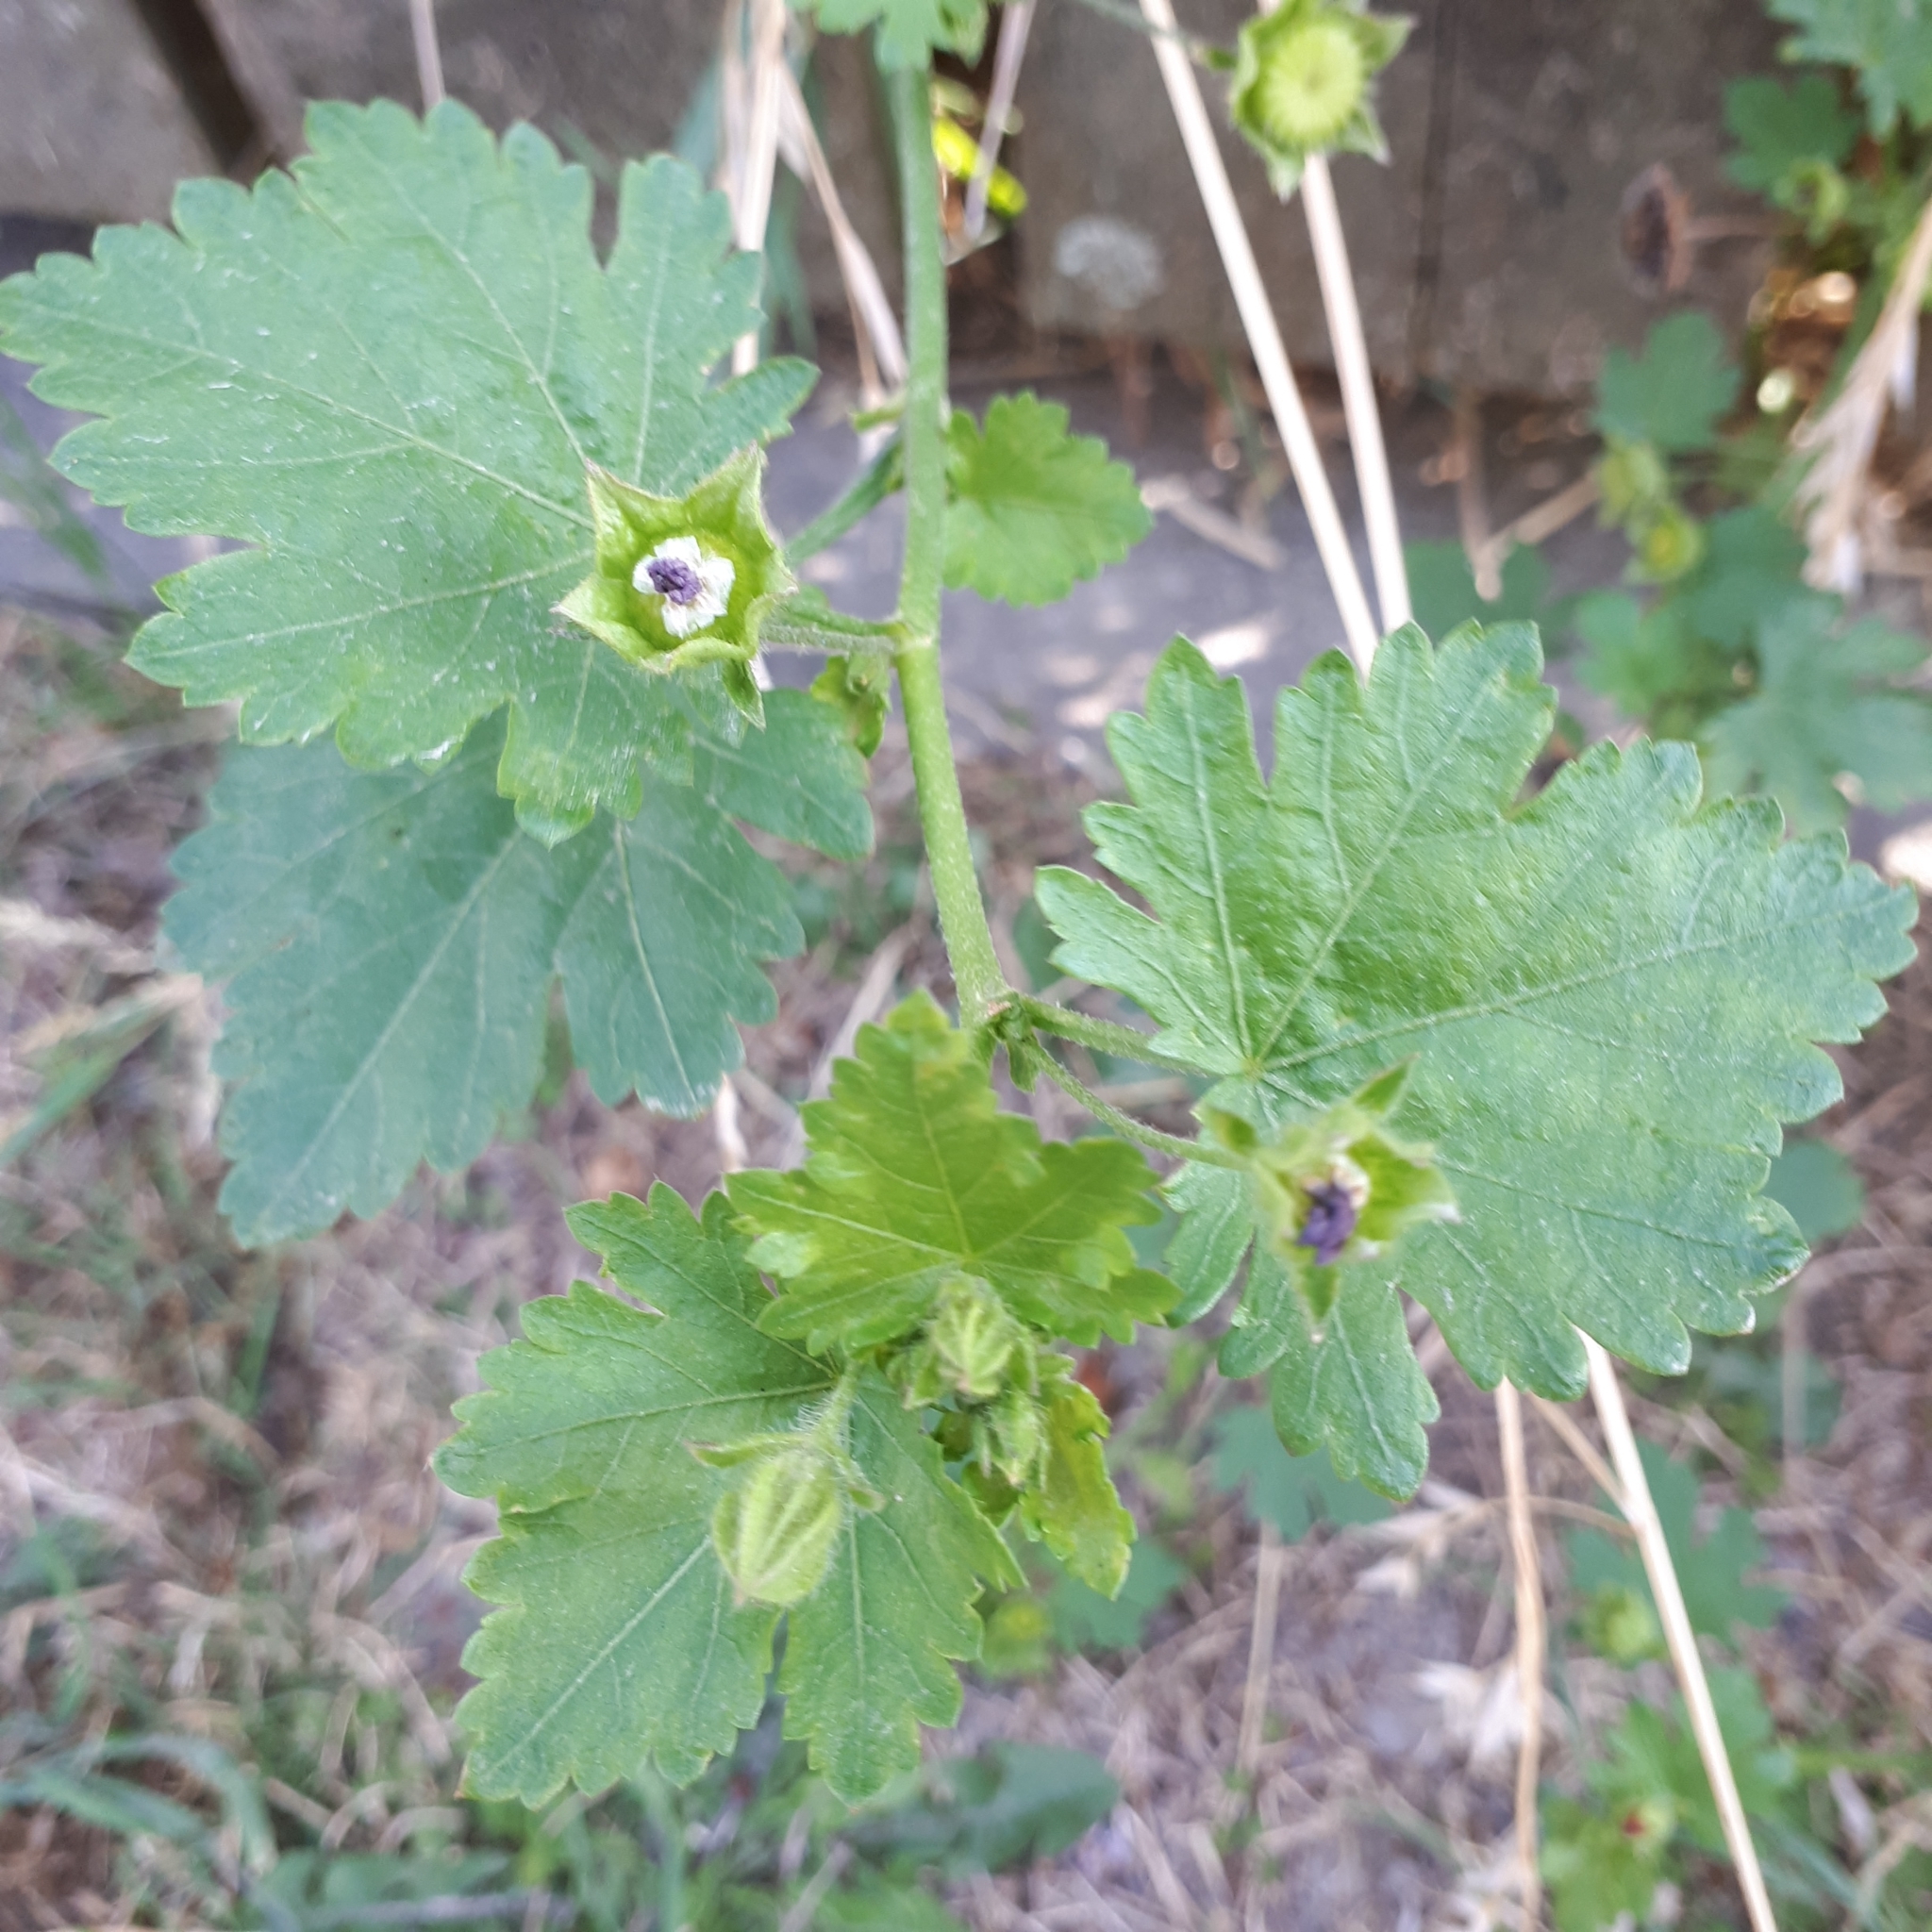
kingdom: Plantae
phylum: Tracheophyta
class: Magnoliopsida
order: Malvales
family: Malvaceae
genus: Modiola
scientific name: Modiola caroliniana
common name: Carolina bristlemallow
